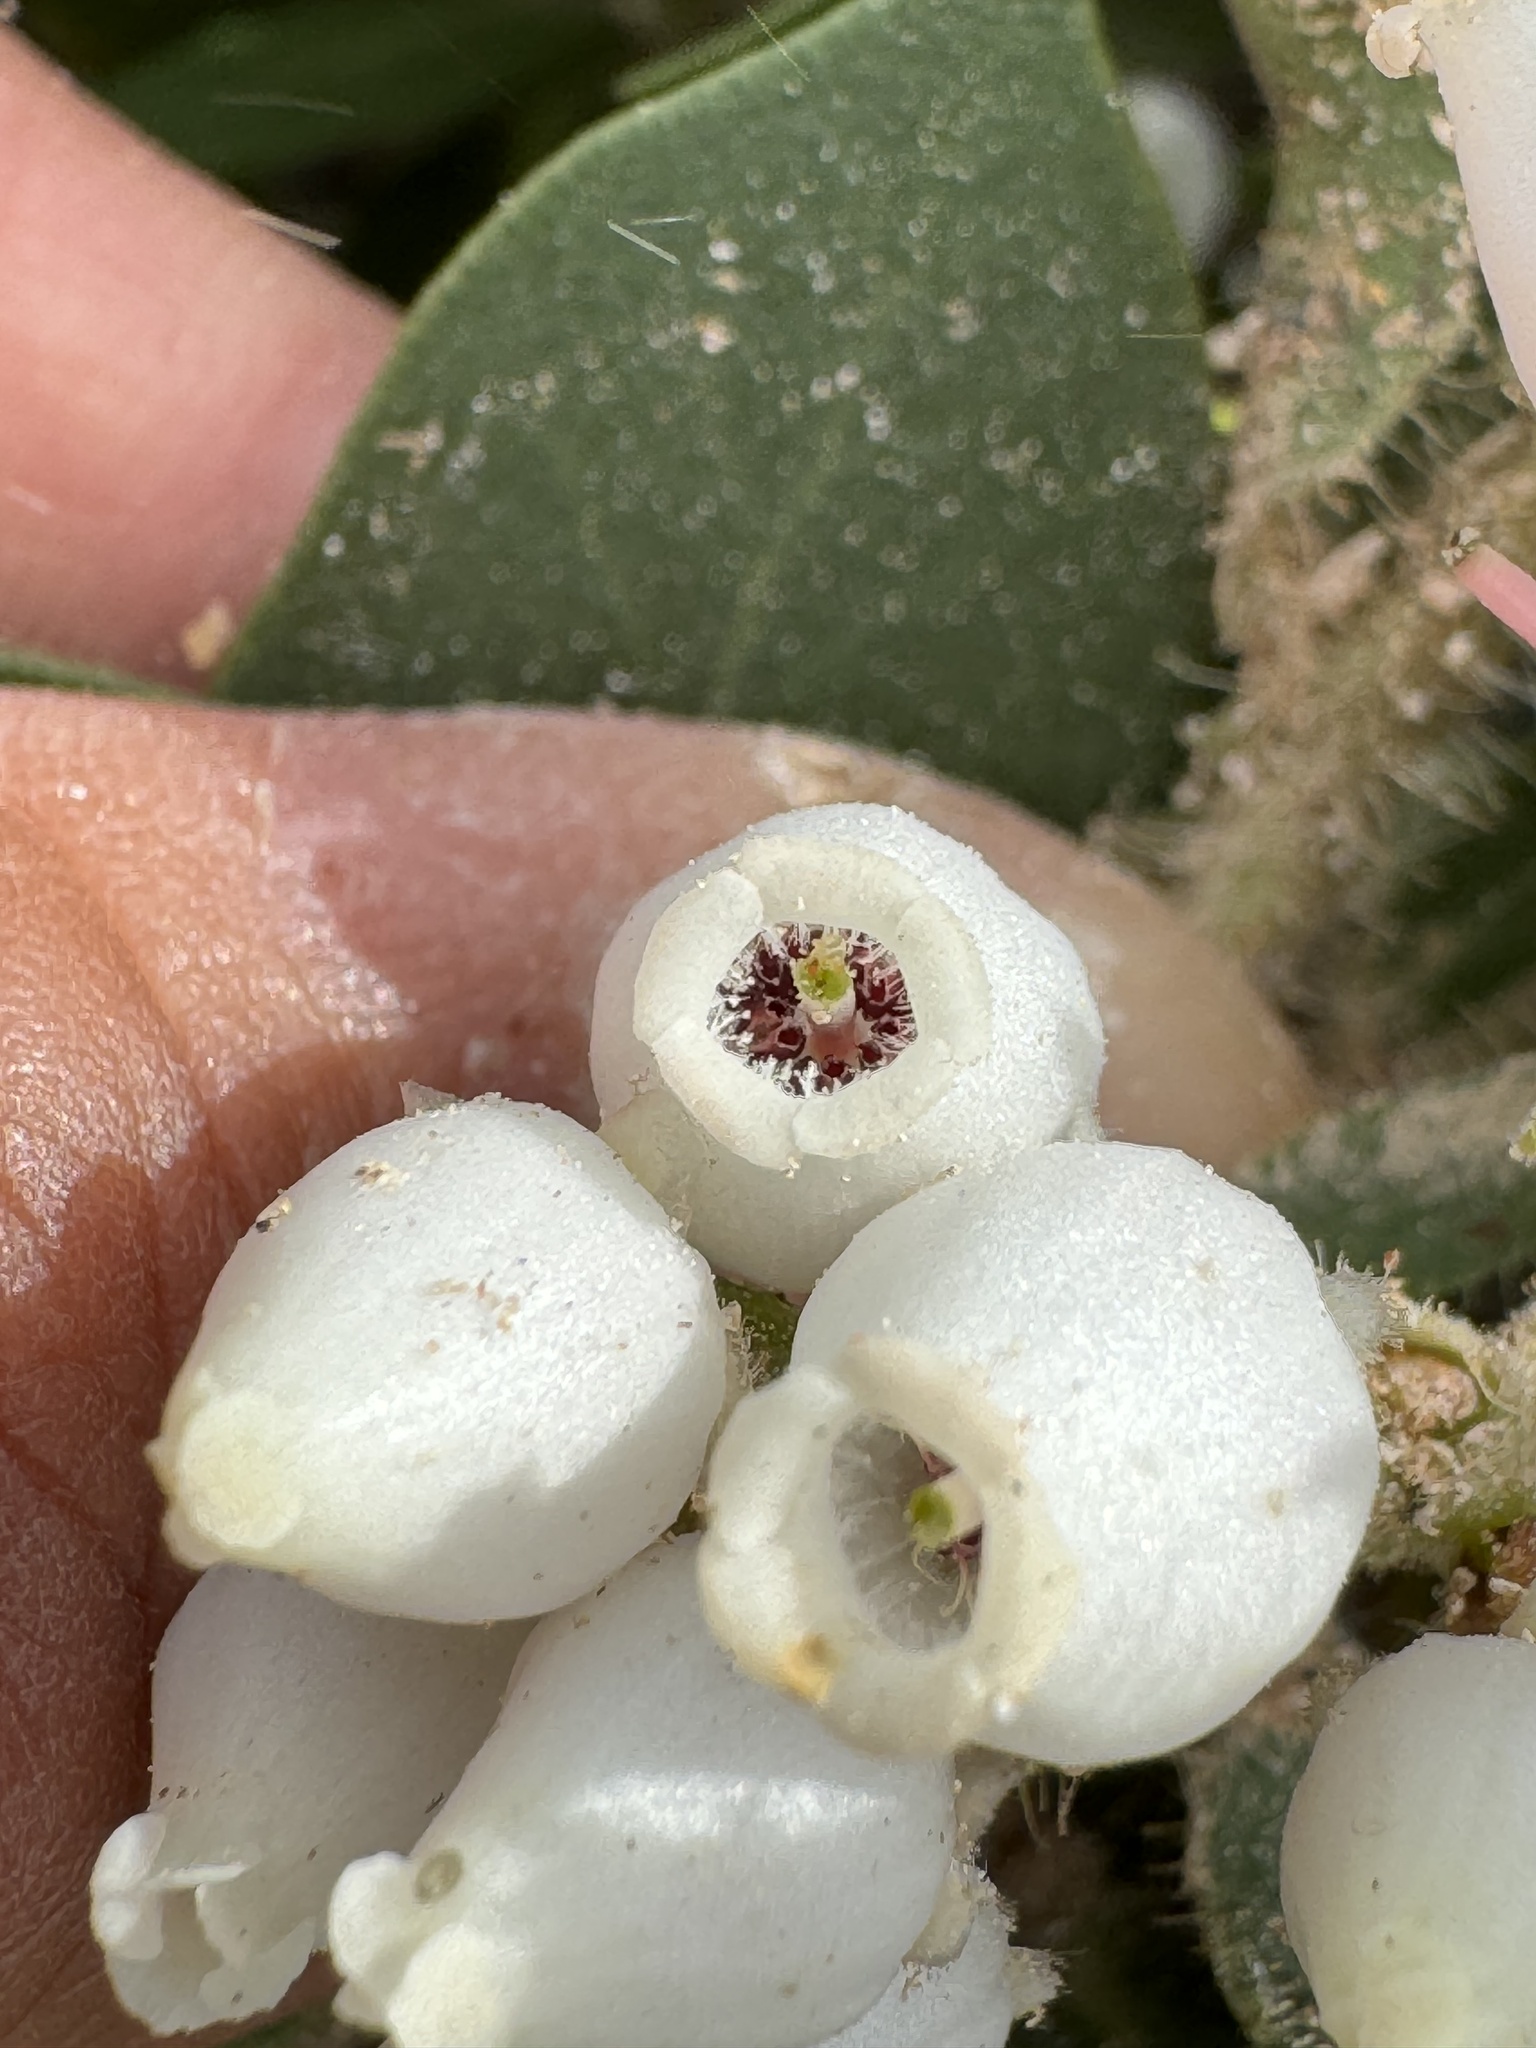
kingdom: Plantae
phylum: Tracheophyta
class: Magnoliopsida
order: Ericales
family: Ericaceae
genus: Arctostaphylos
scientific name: Arctostaphylos catalinae
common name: Santa catalina island manzanita
